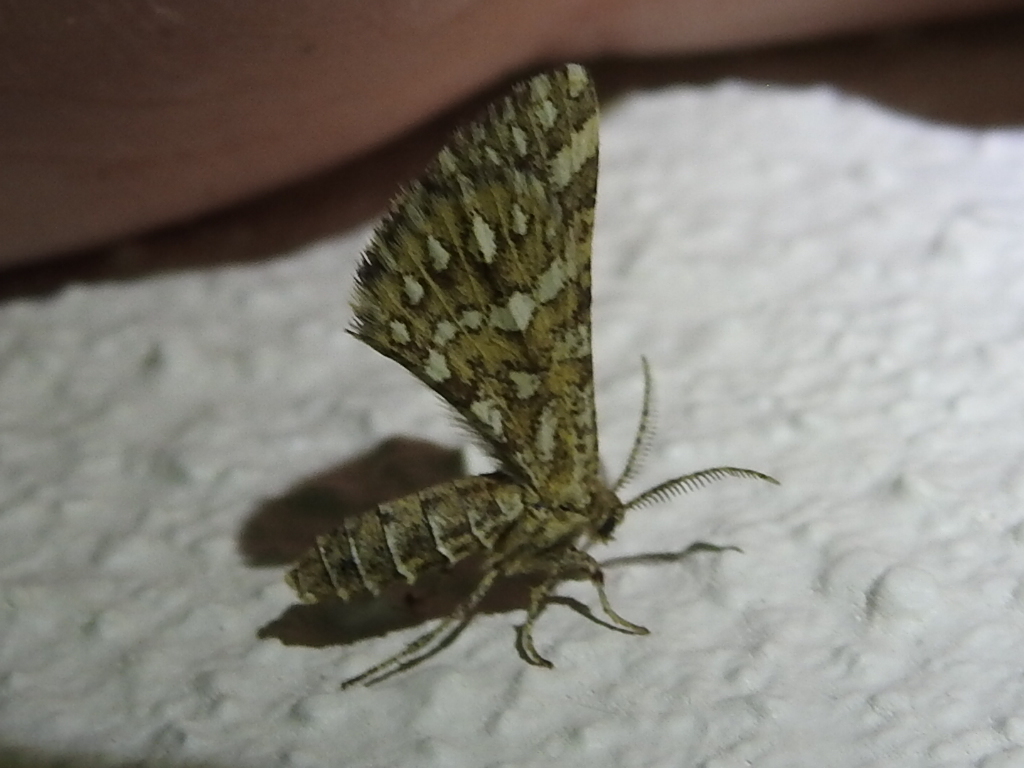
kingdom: Animalia
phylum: Arthropoda
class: Insecta
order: Lepidoptera
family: Geometridae
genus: Narraga
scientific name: Narraga fimetaria
